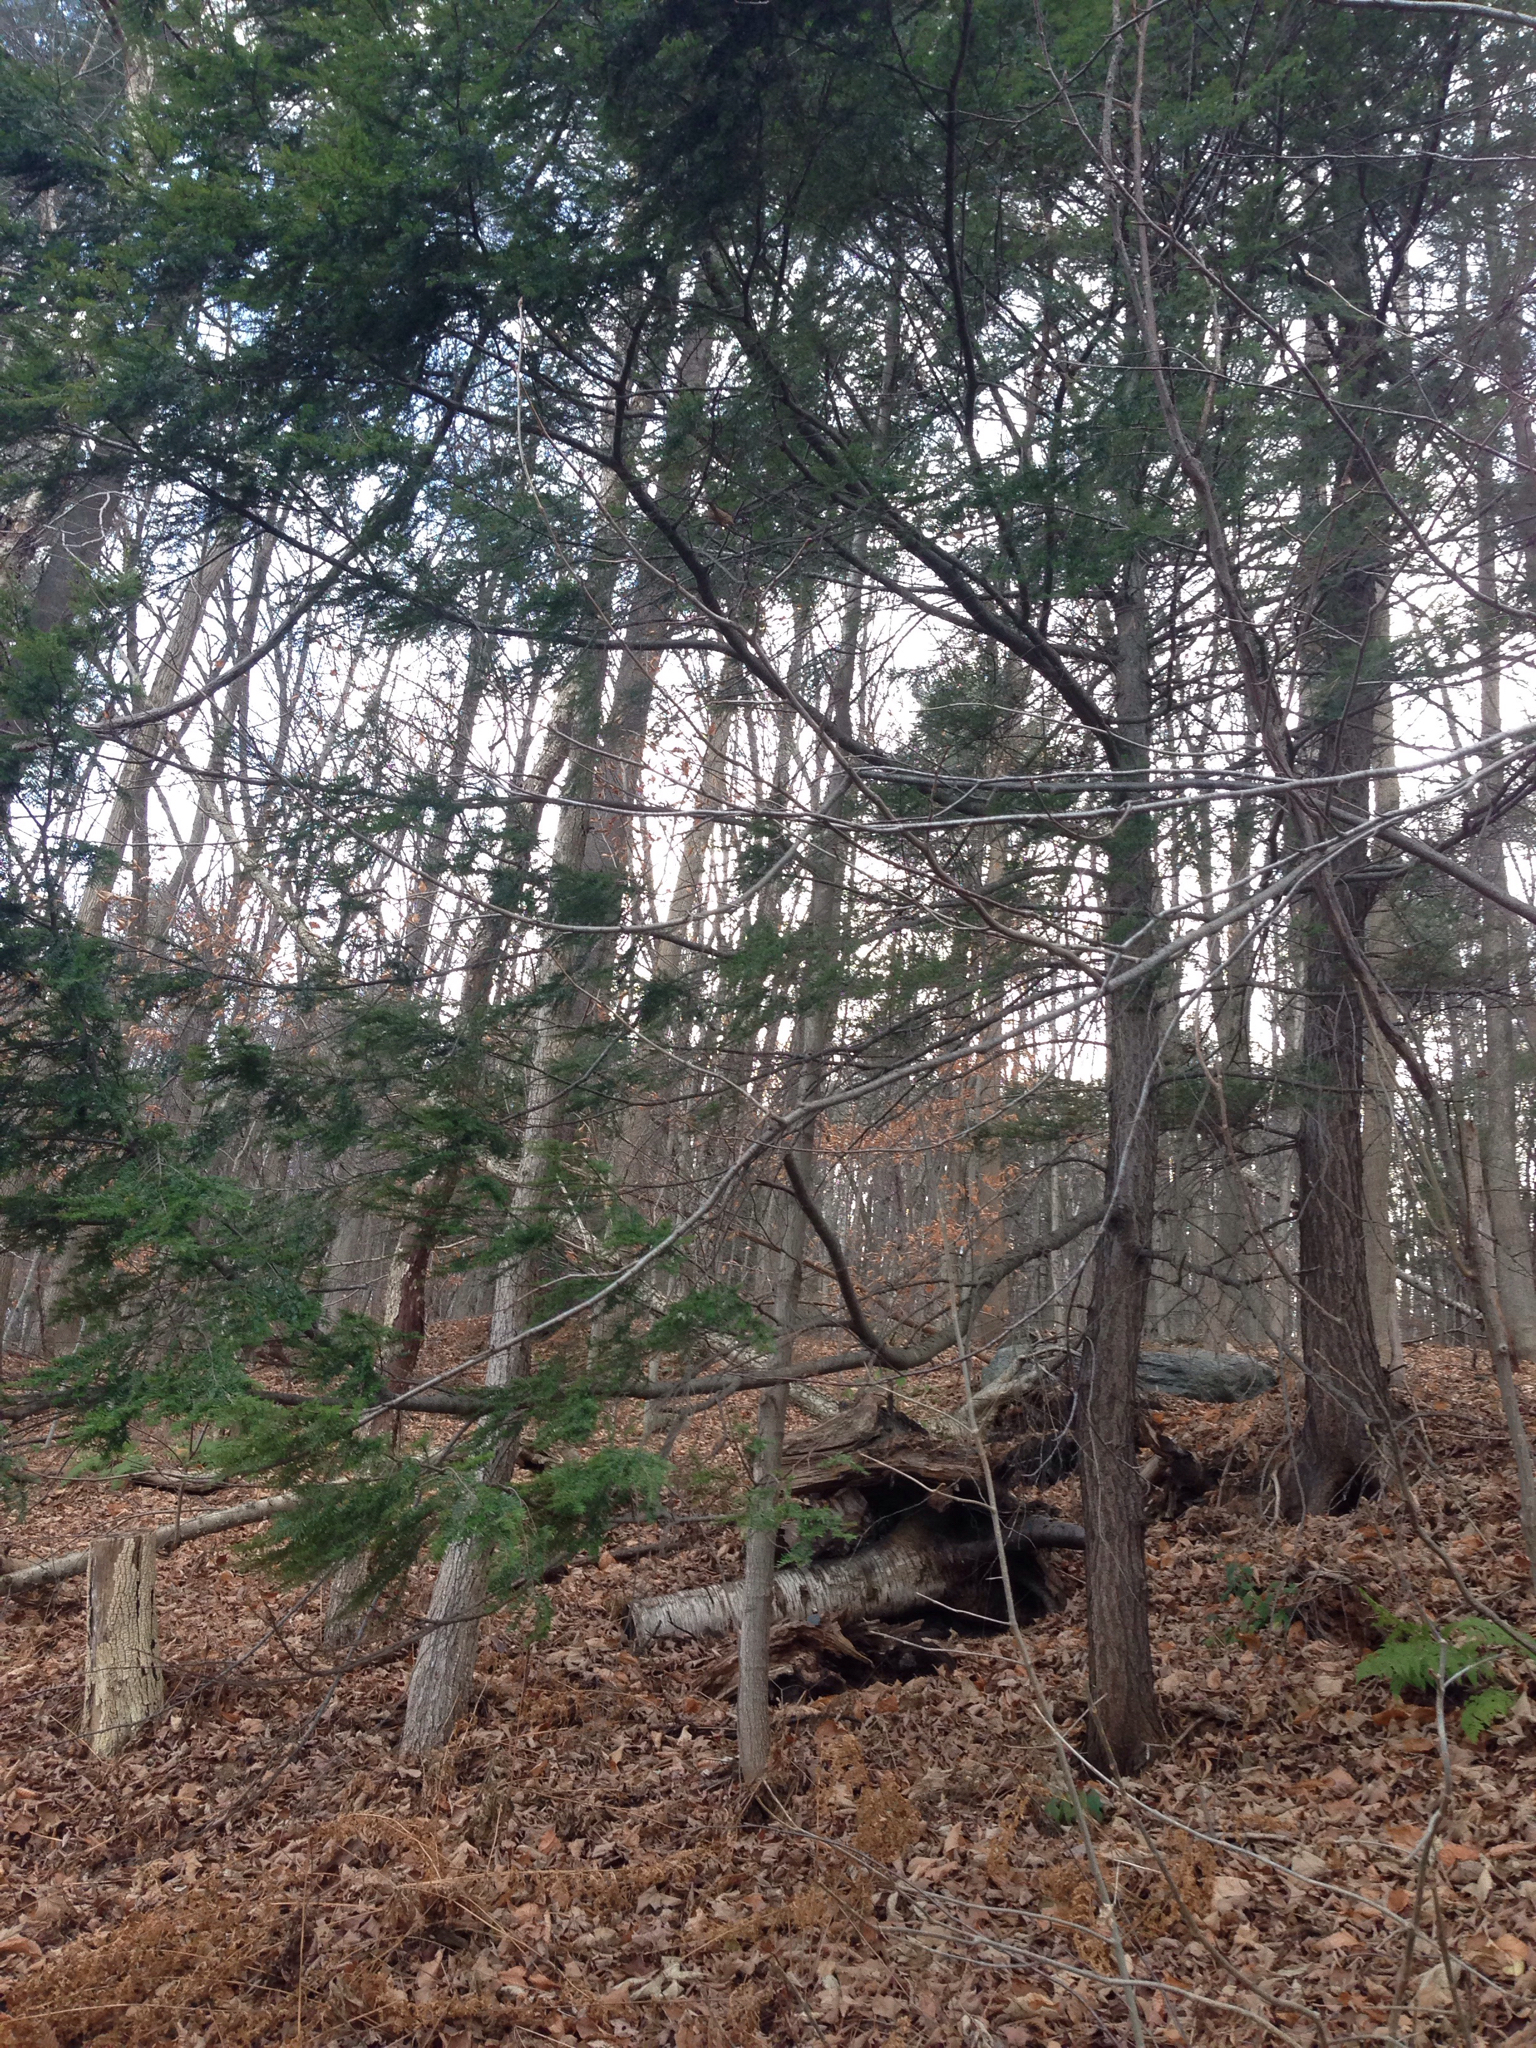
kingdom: Plantae
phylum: Tracheophyta
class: Pinopsida
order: Pinales
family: Pinaceae
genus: Tsuga
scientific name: Tsuga canadensis
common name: Eastern hemlock
